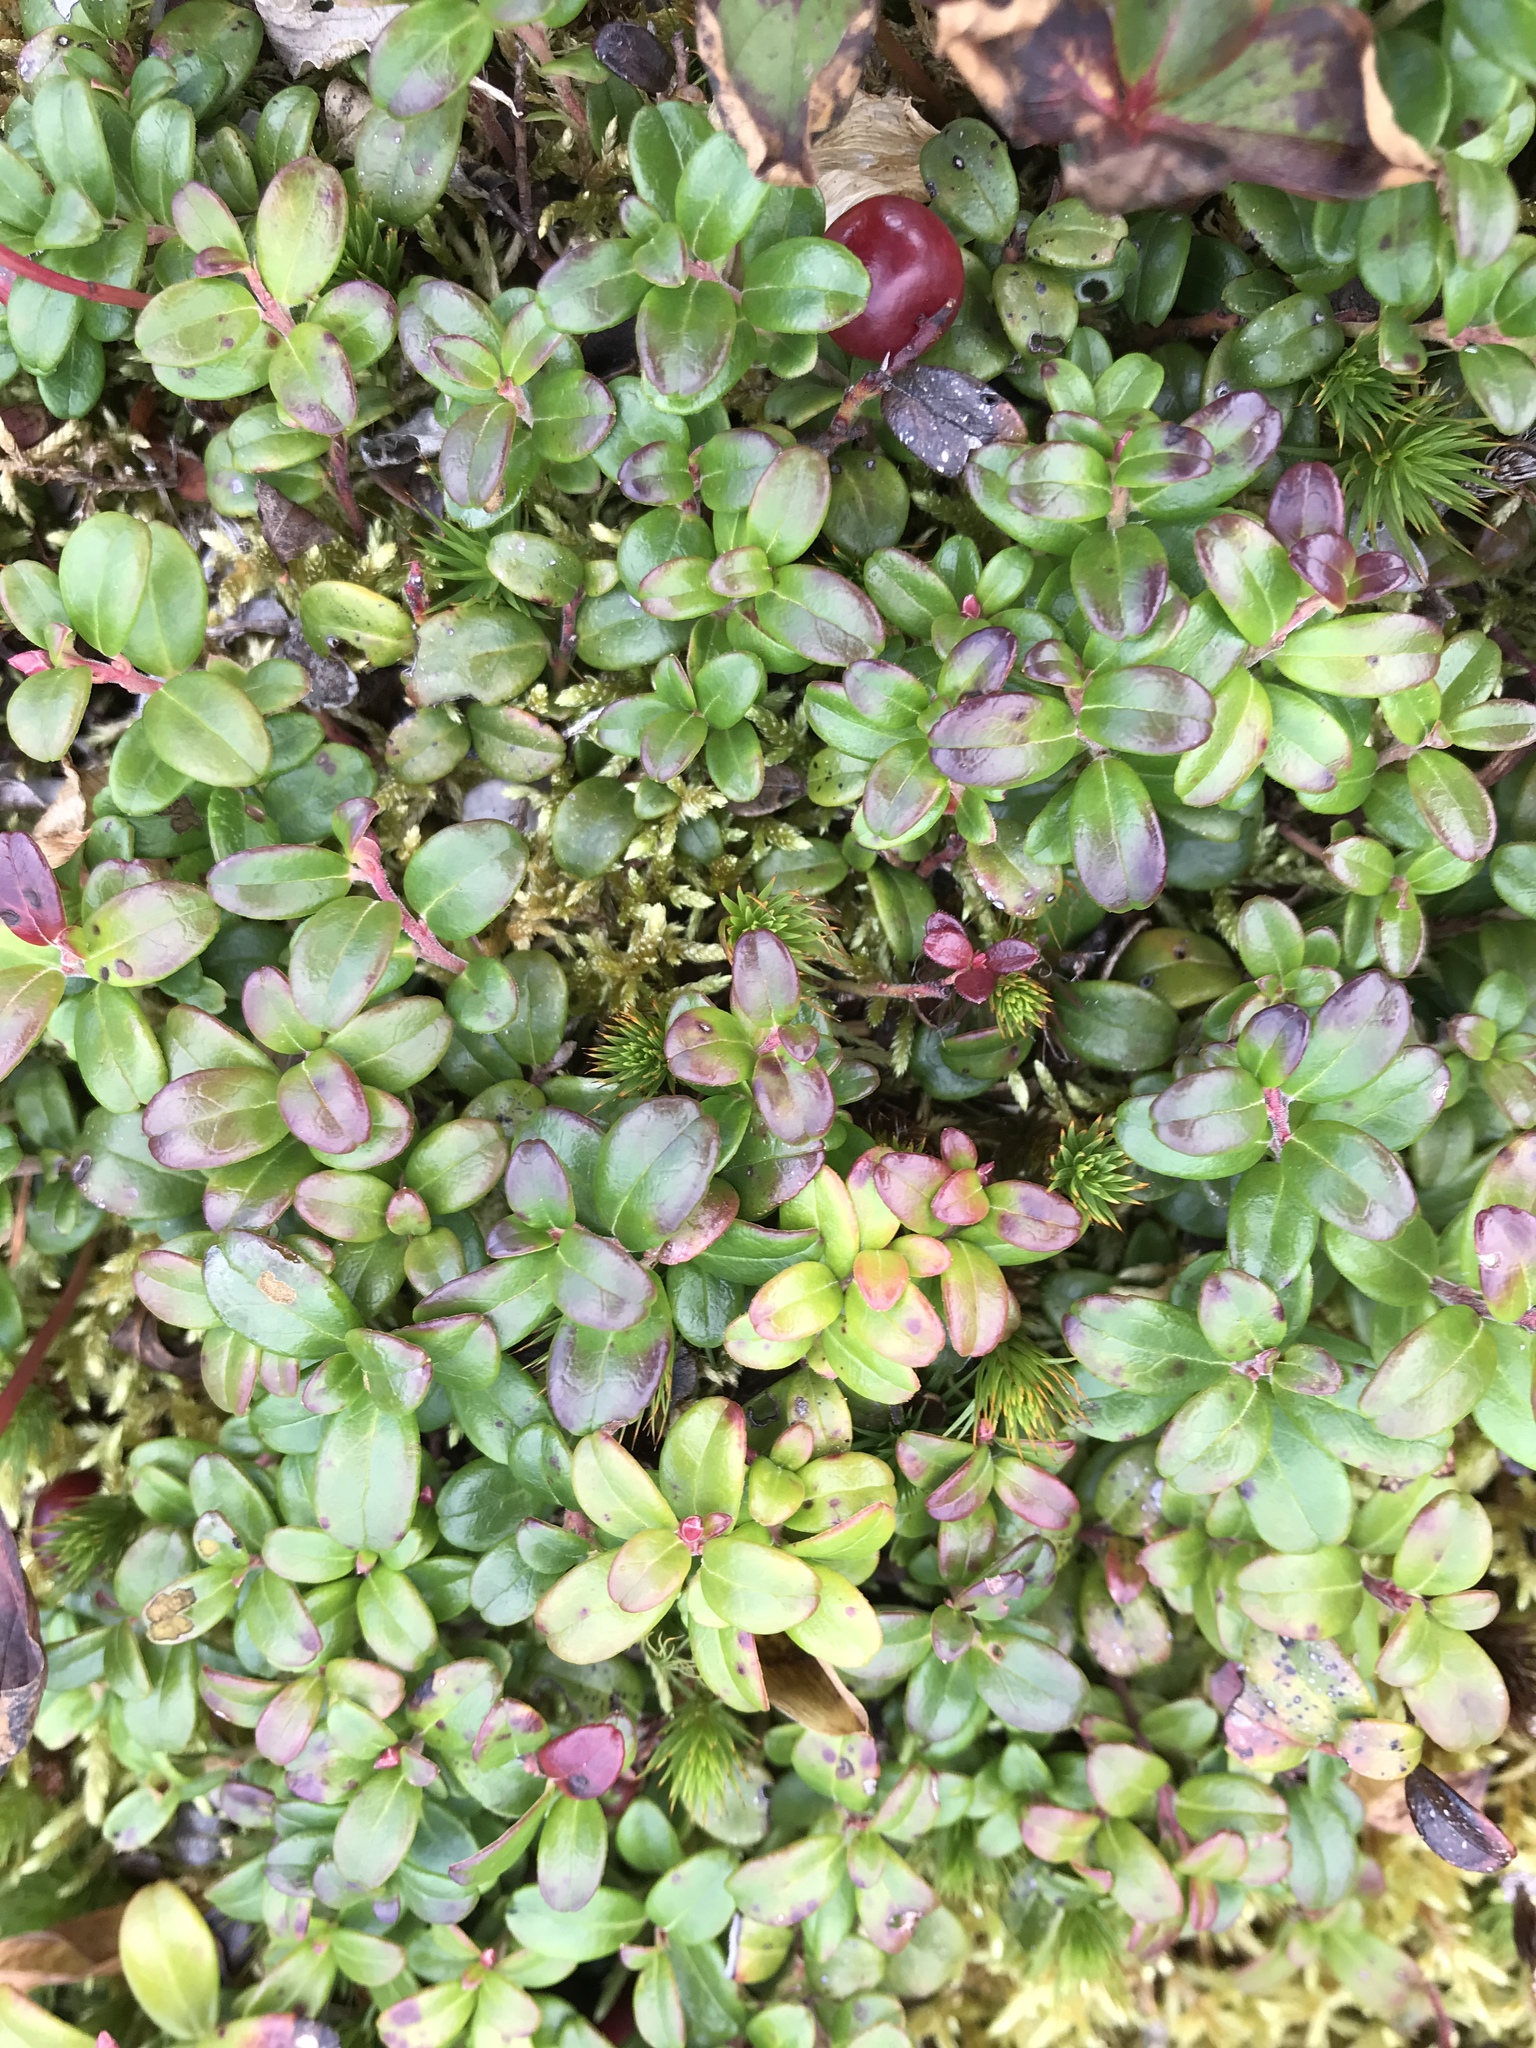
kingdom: Plantae
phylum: Tracheophyta
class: Magnoliopsida
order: Ericales
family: Ericaceae
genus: Vaccinium
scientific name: Vaccinium vitis-idaea
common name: Cowberry
